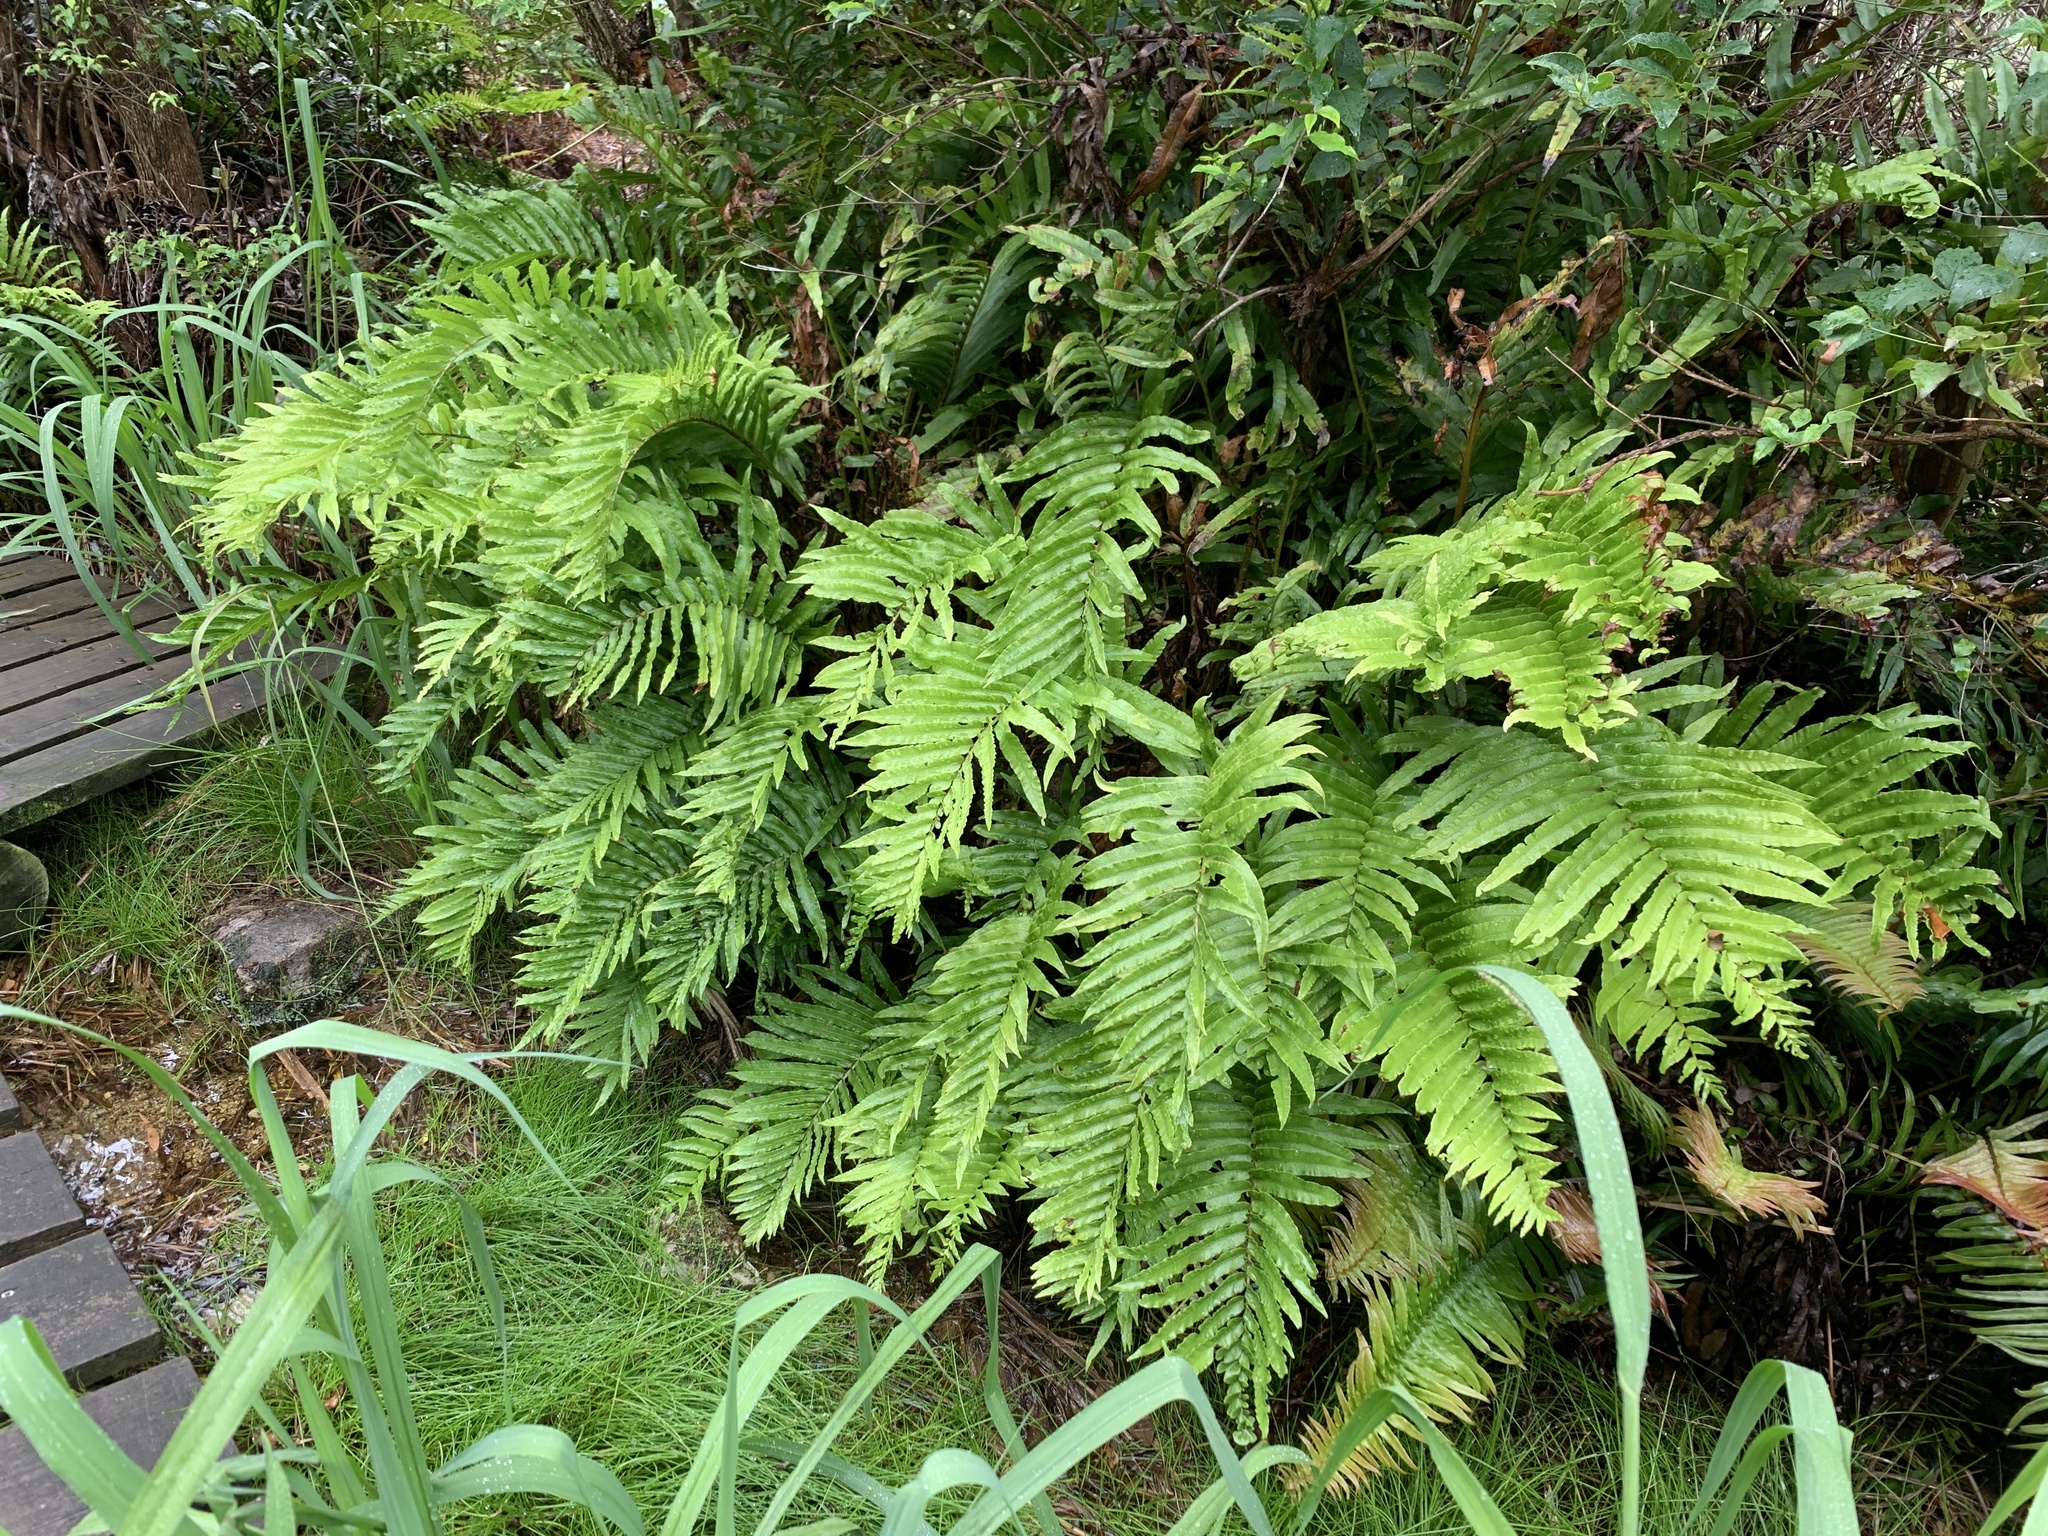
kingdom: Plantae
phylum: Tracheophyta
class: Polypodiopsida
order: Polypodiales
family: Blechnaceae
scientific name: Blechnaceae
